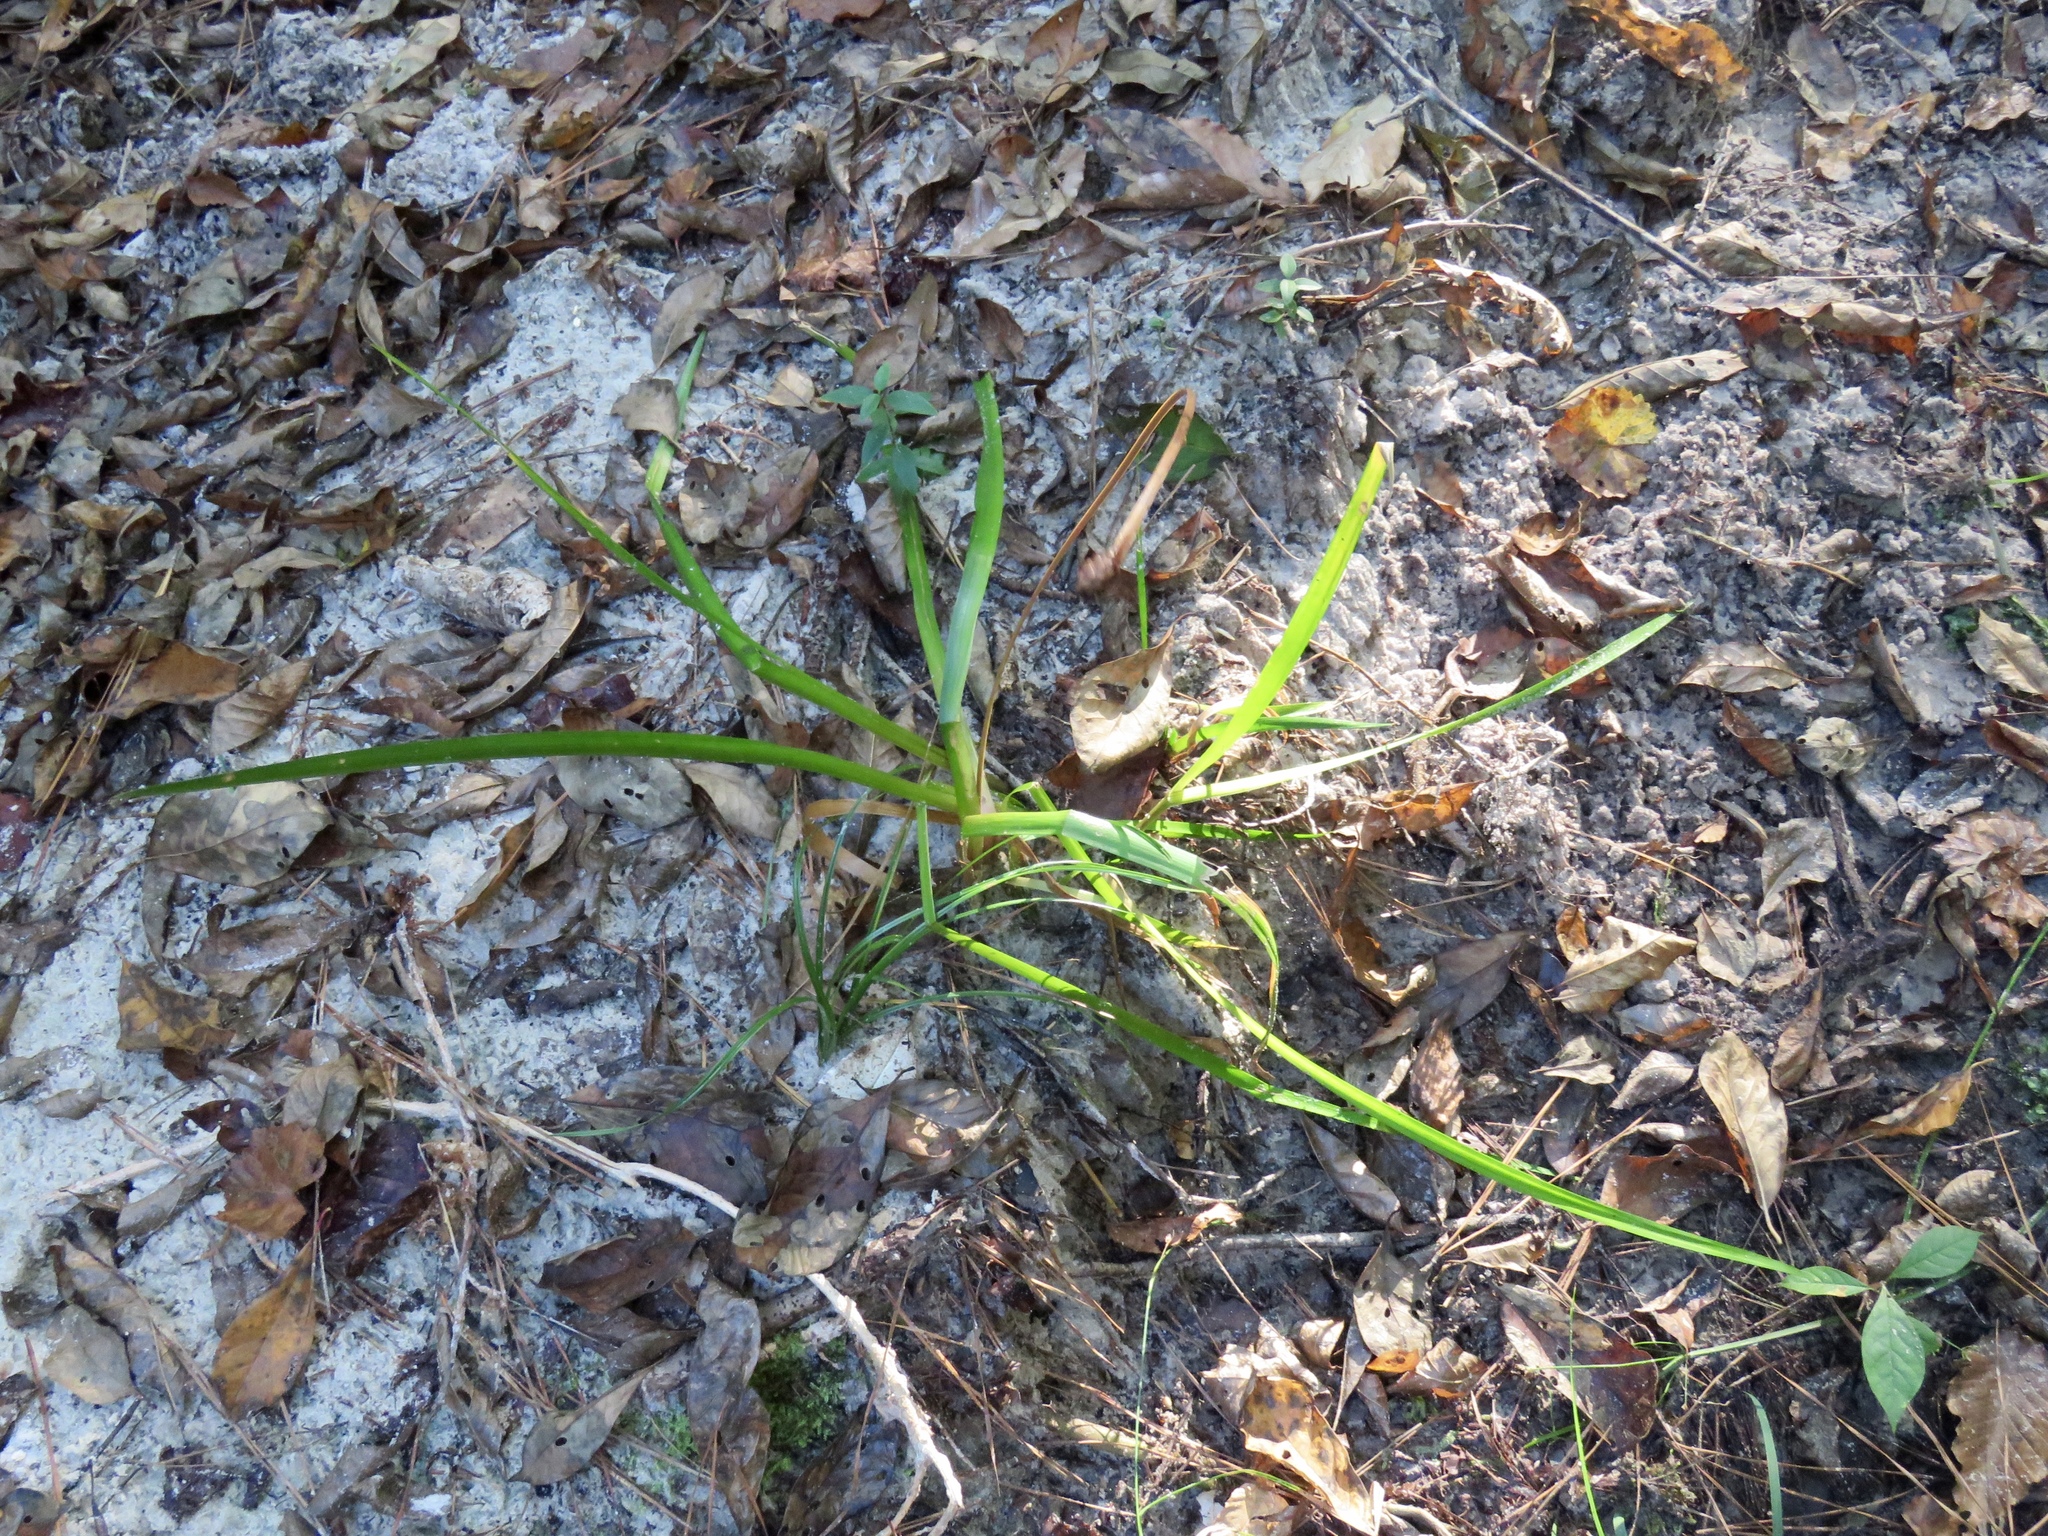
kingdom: Plantae
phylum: Tracheophyta
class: Liliopsida
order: Poales
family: Xyridaceae
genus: Xyris
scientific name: Xyris difformis
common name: Bog yellow-eyed-grass
